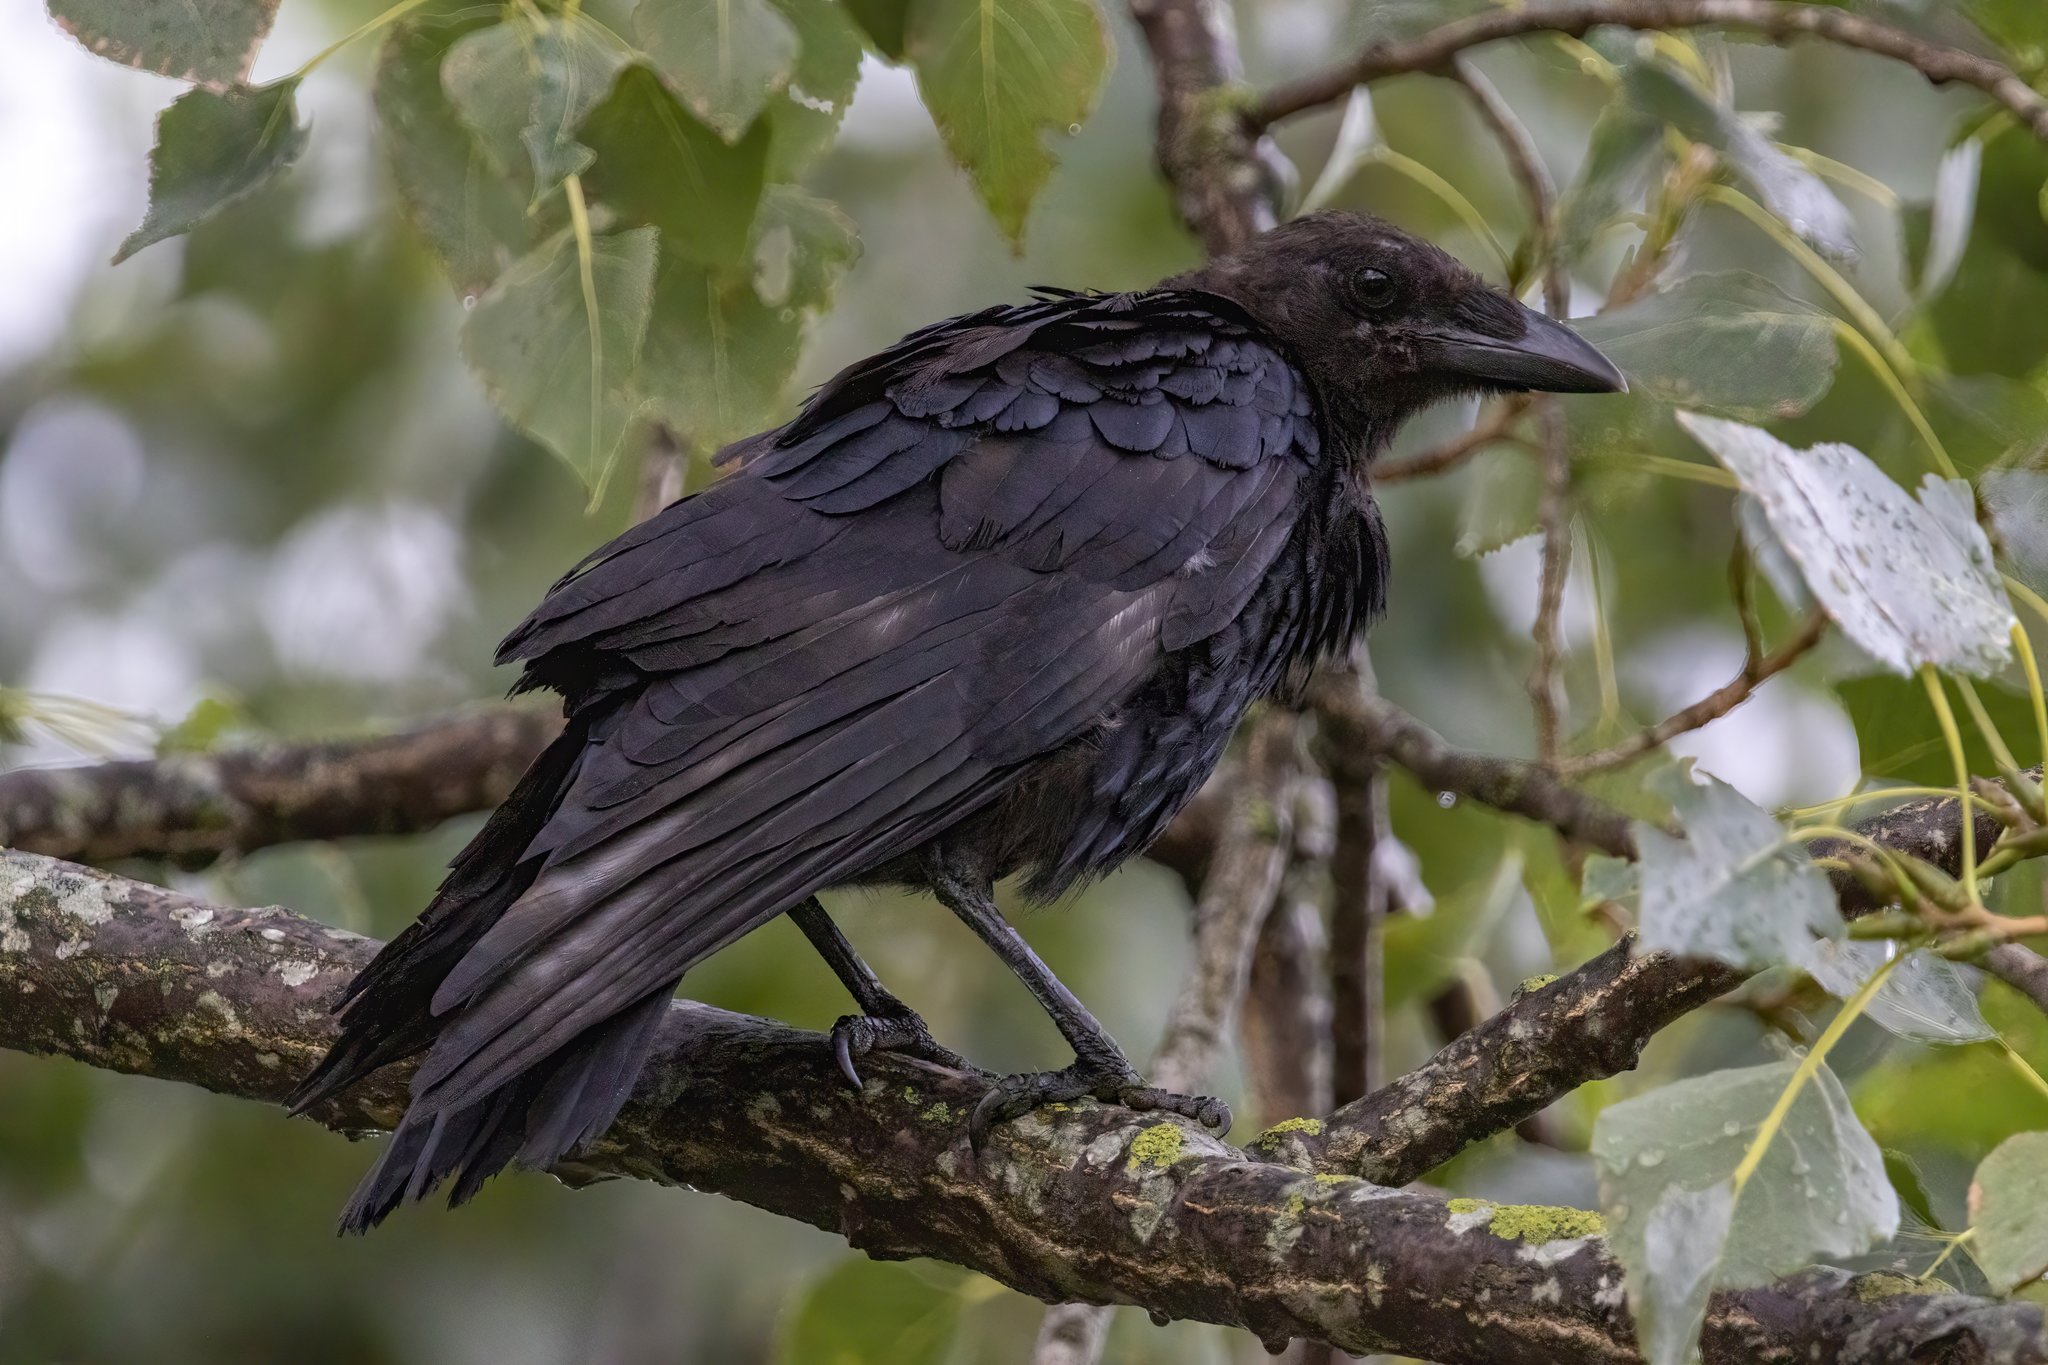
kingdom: Animalia
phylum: Chordata
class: Aves
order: Passeriformes
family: Corvidae
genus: Corvus
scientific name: Corvus corone
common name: Carrion crow
